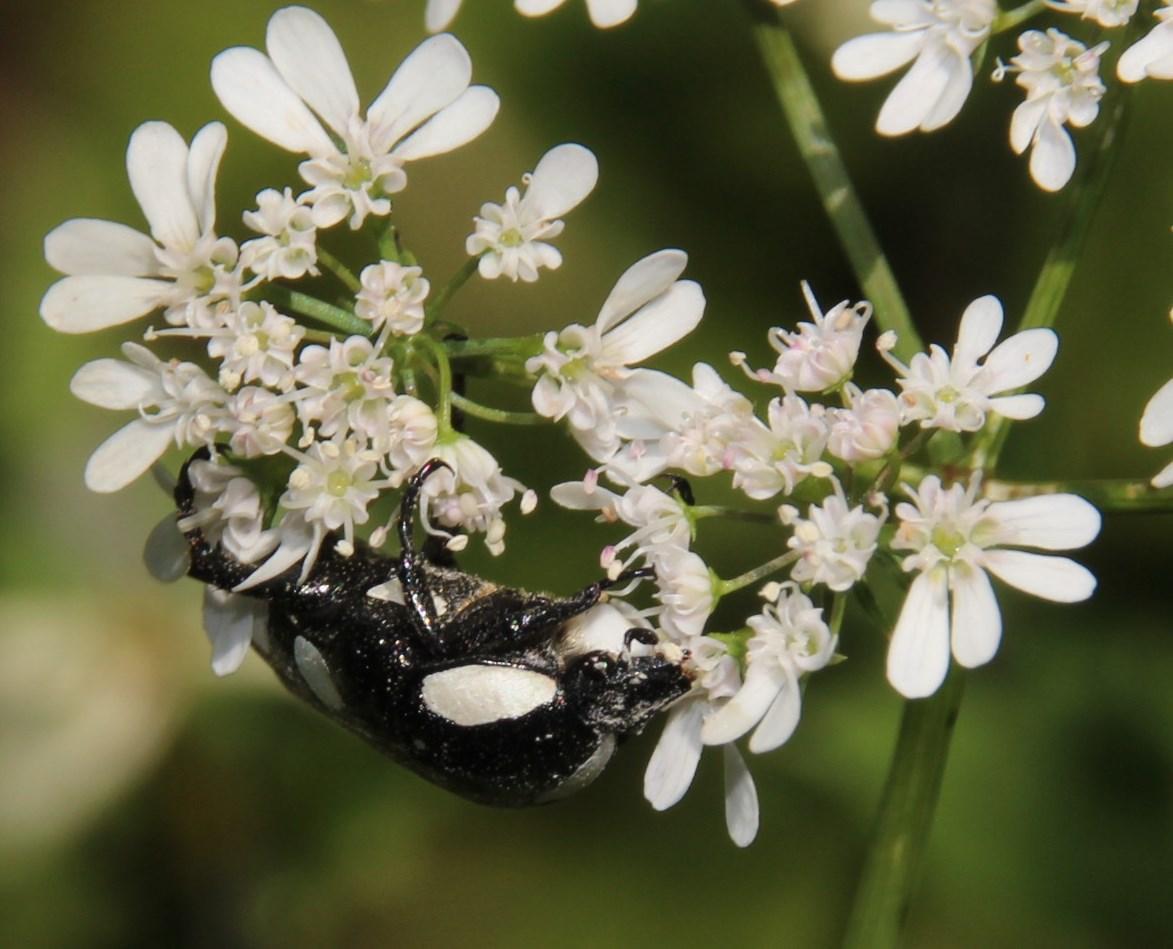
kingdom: Animalia
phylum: Arthropoda
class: Insecta
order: Coleoptera
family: Scarabaeidae
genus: Mausoleopsis
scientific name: Mausoleopsis amabilis
